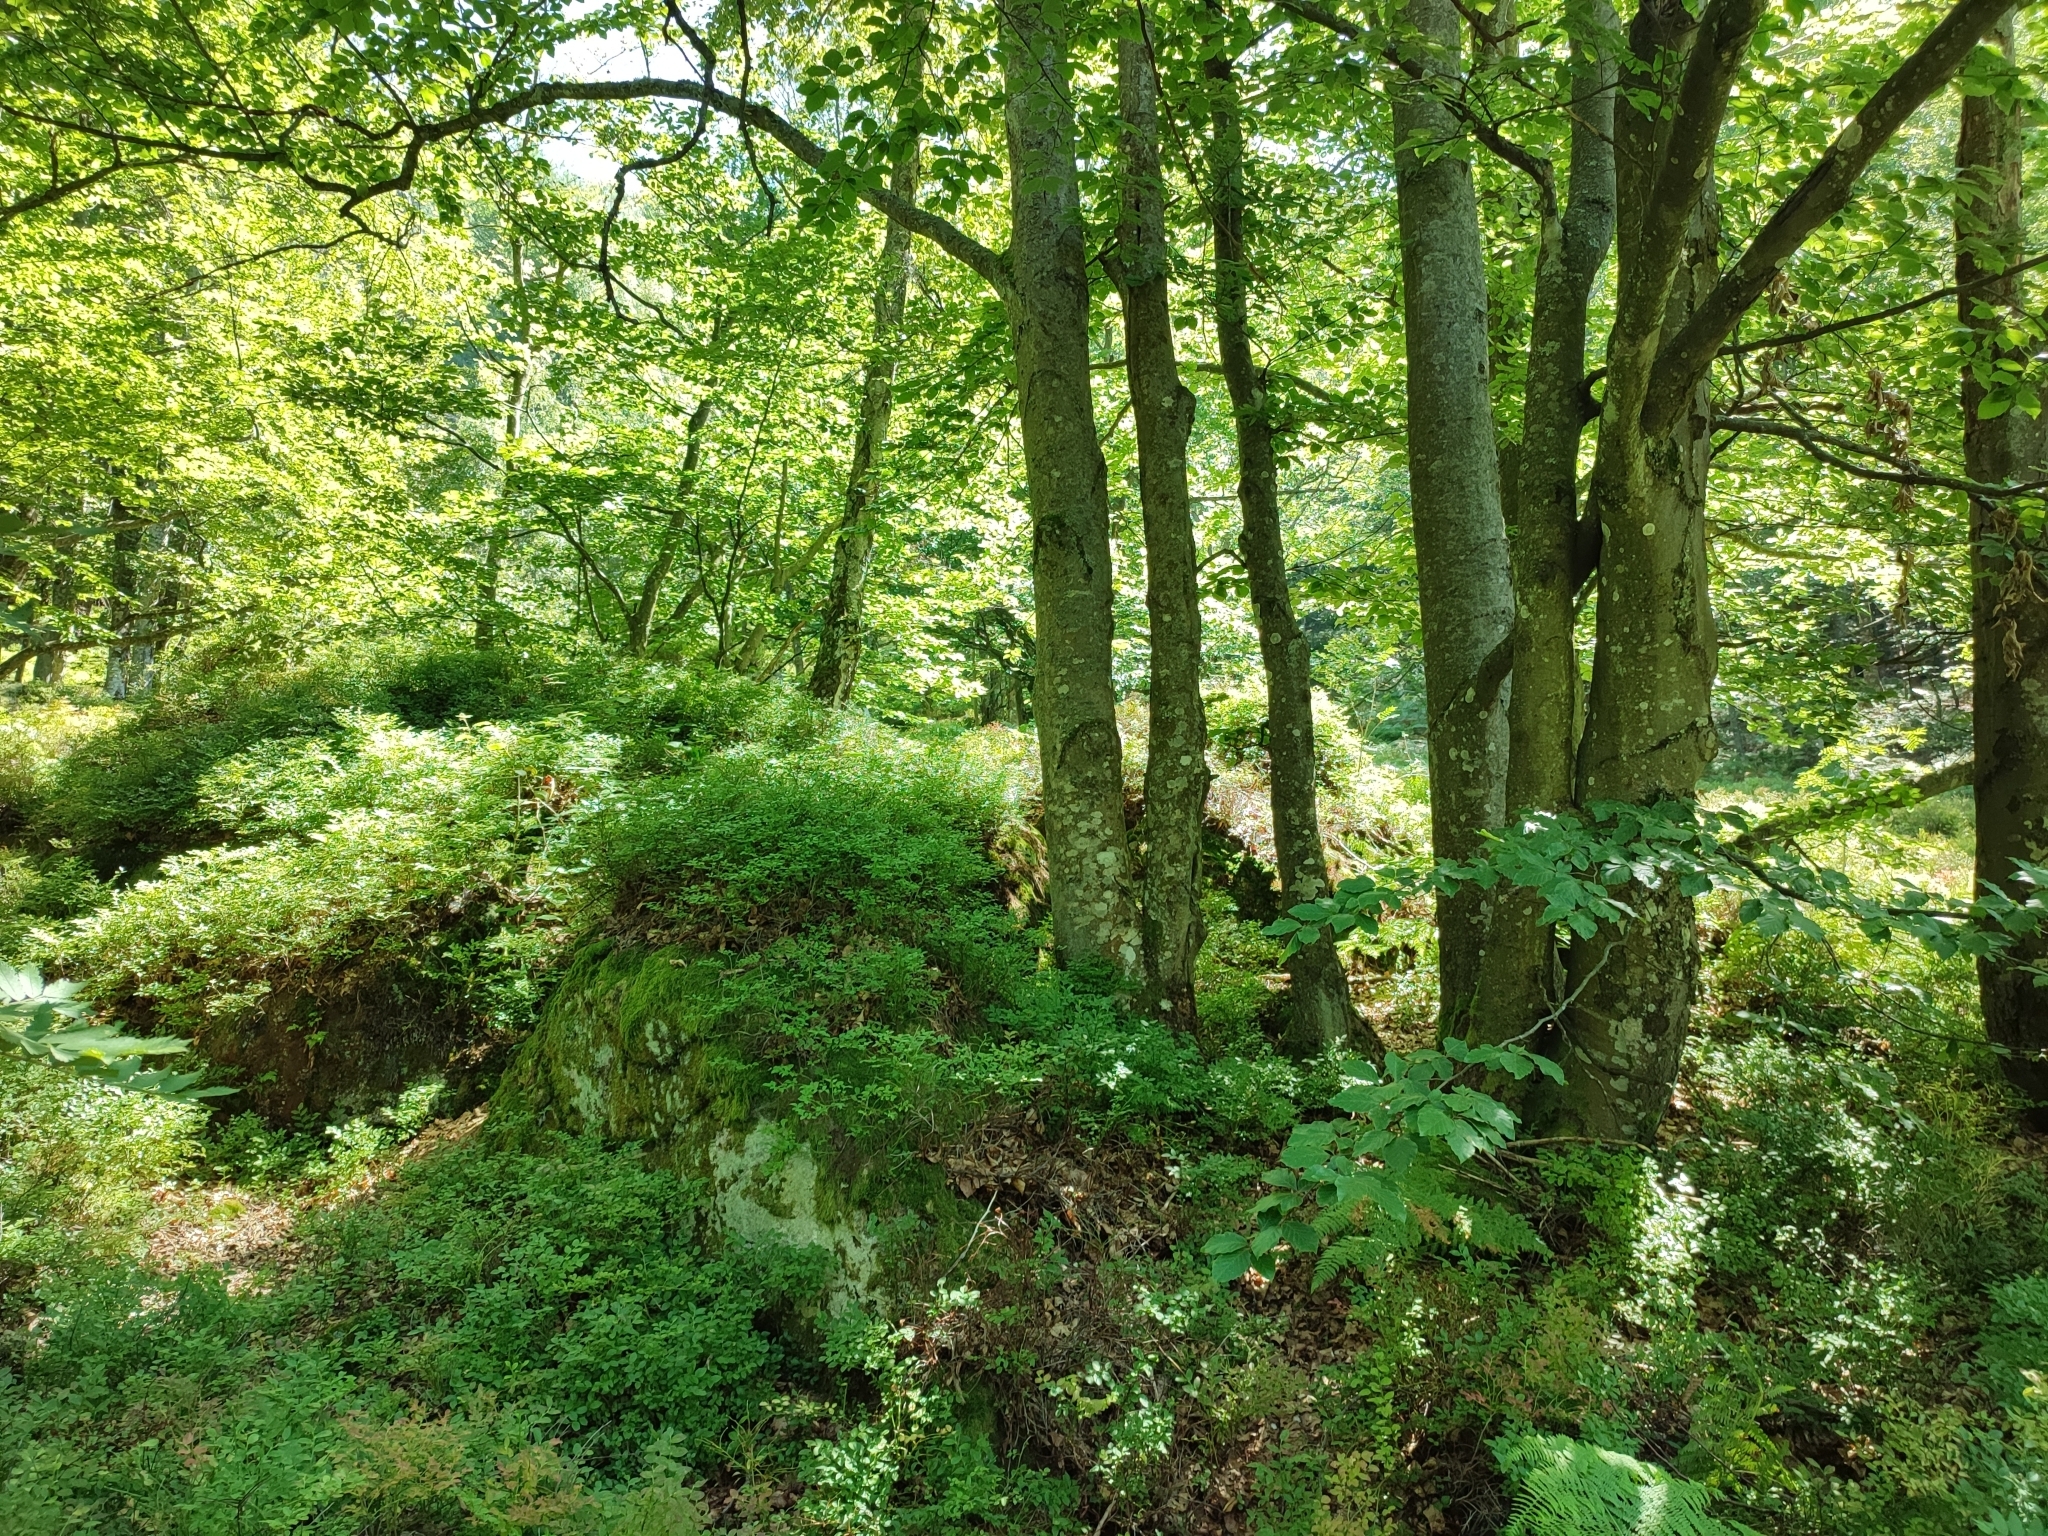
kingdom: Plantae
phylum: Tracheophyta
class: Magnoliopsida
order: Fagales
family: Fagaceae
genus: Fagus
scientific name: Fagus sylvatica
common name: Beech
